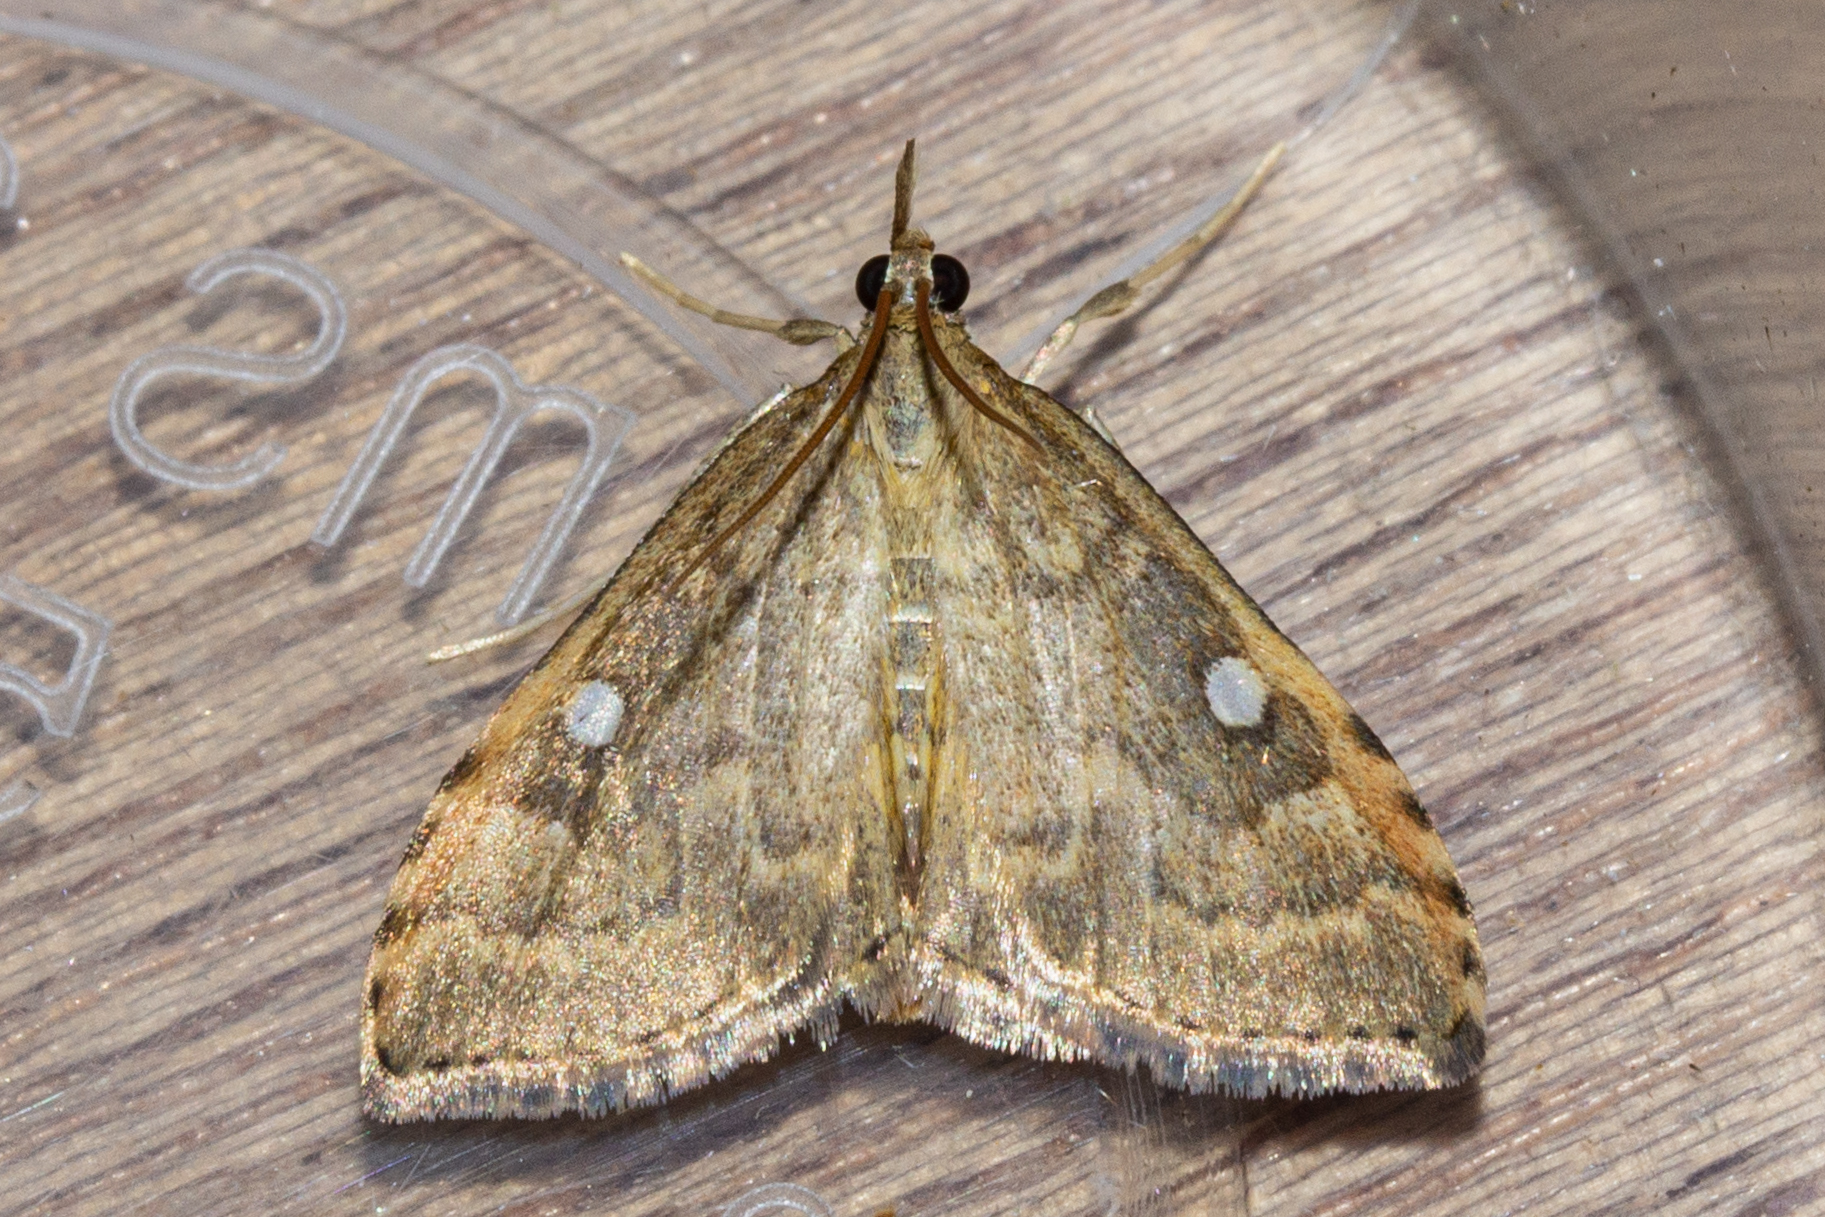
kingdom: Animalia
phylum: Arthropoda
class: Insecta
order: Lepidoptera
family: Crambidae
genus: Udea
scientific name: Udea marmarina
